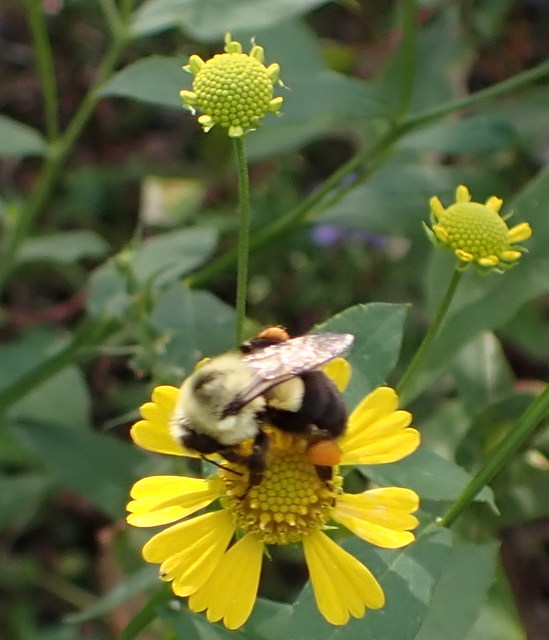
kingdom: Animalia
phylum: Arthropoda
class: Insecta
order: Hymenoptera
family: Apidae
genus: Bombus
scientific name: Bombus impatiens
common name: Common eastern bumble bee
